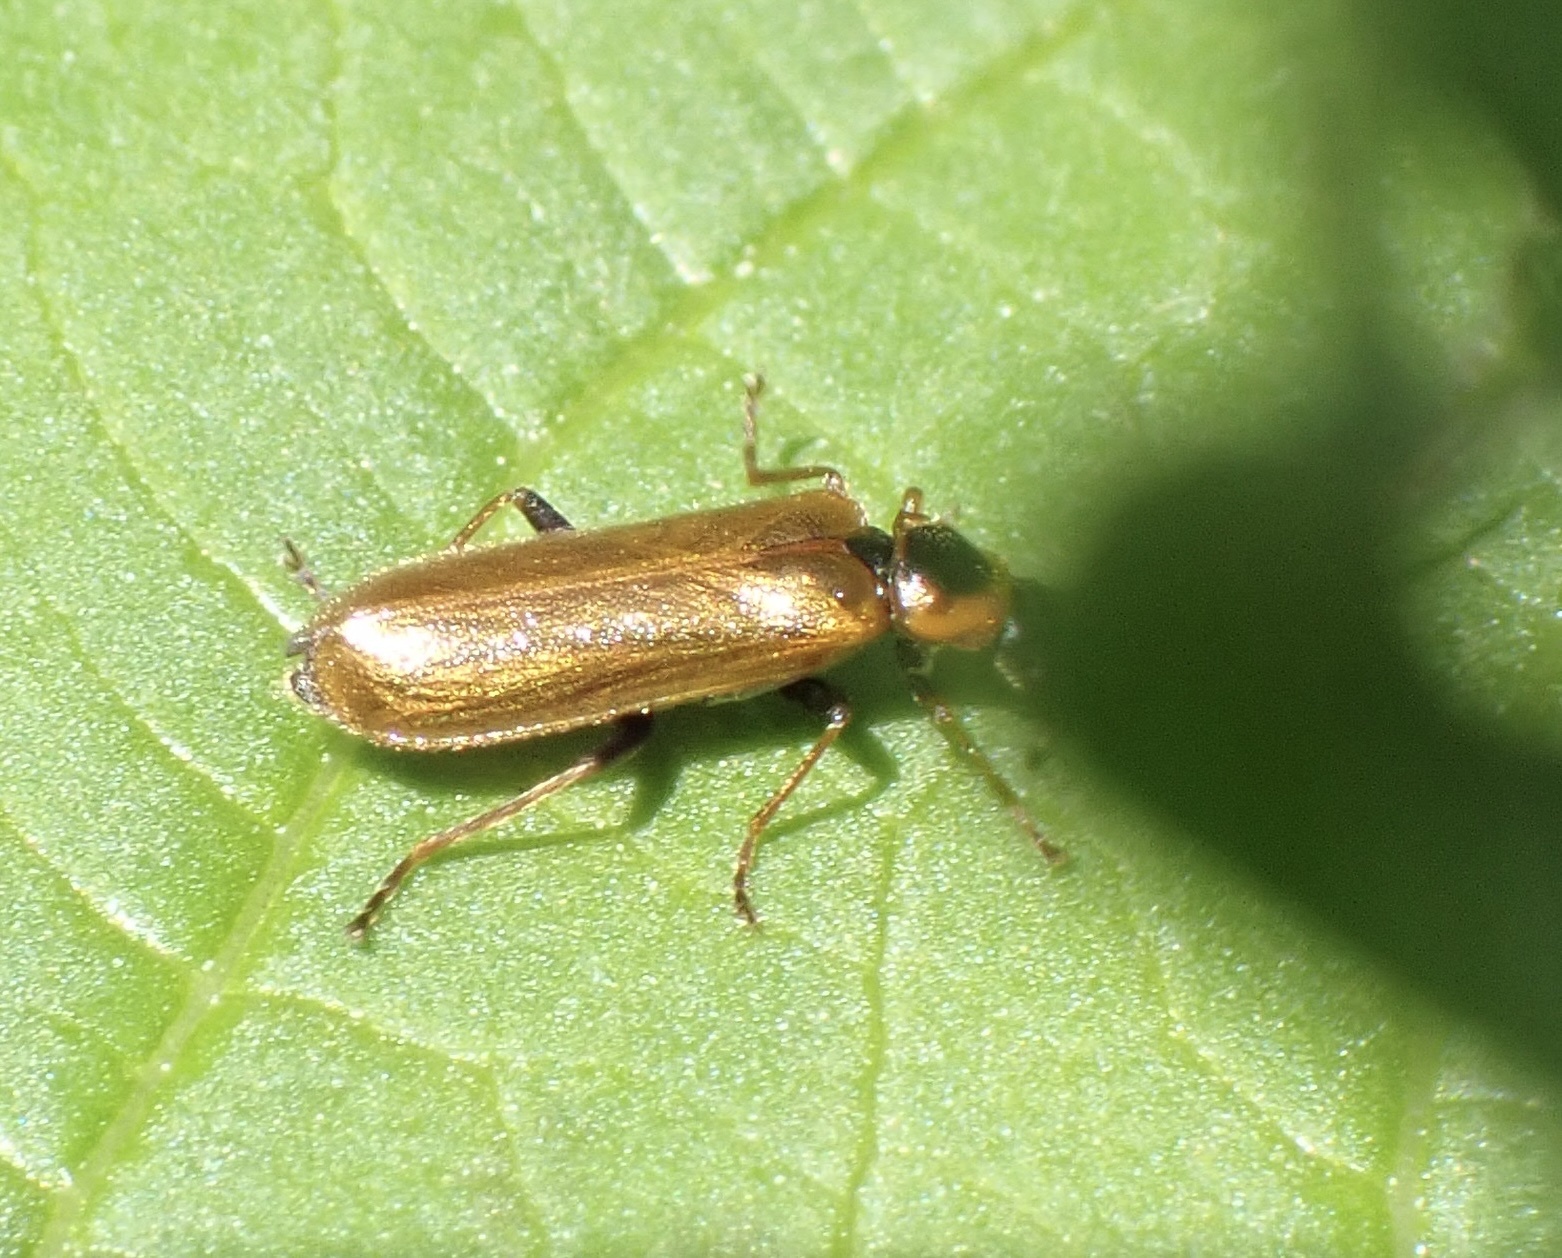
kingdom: Animalia
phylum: Arthropoda
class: Insecta
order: Coleoptera
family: Cantharidae
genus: Rhagonycha
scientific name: Rhagonycha nigriventris
